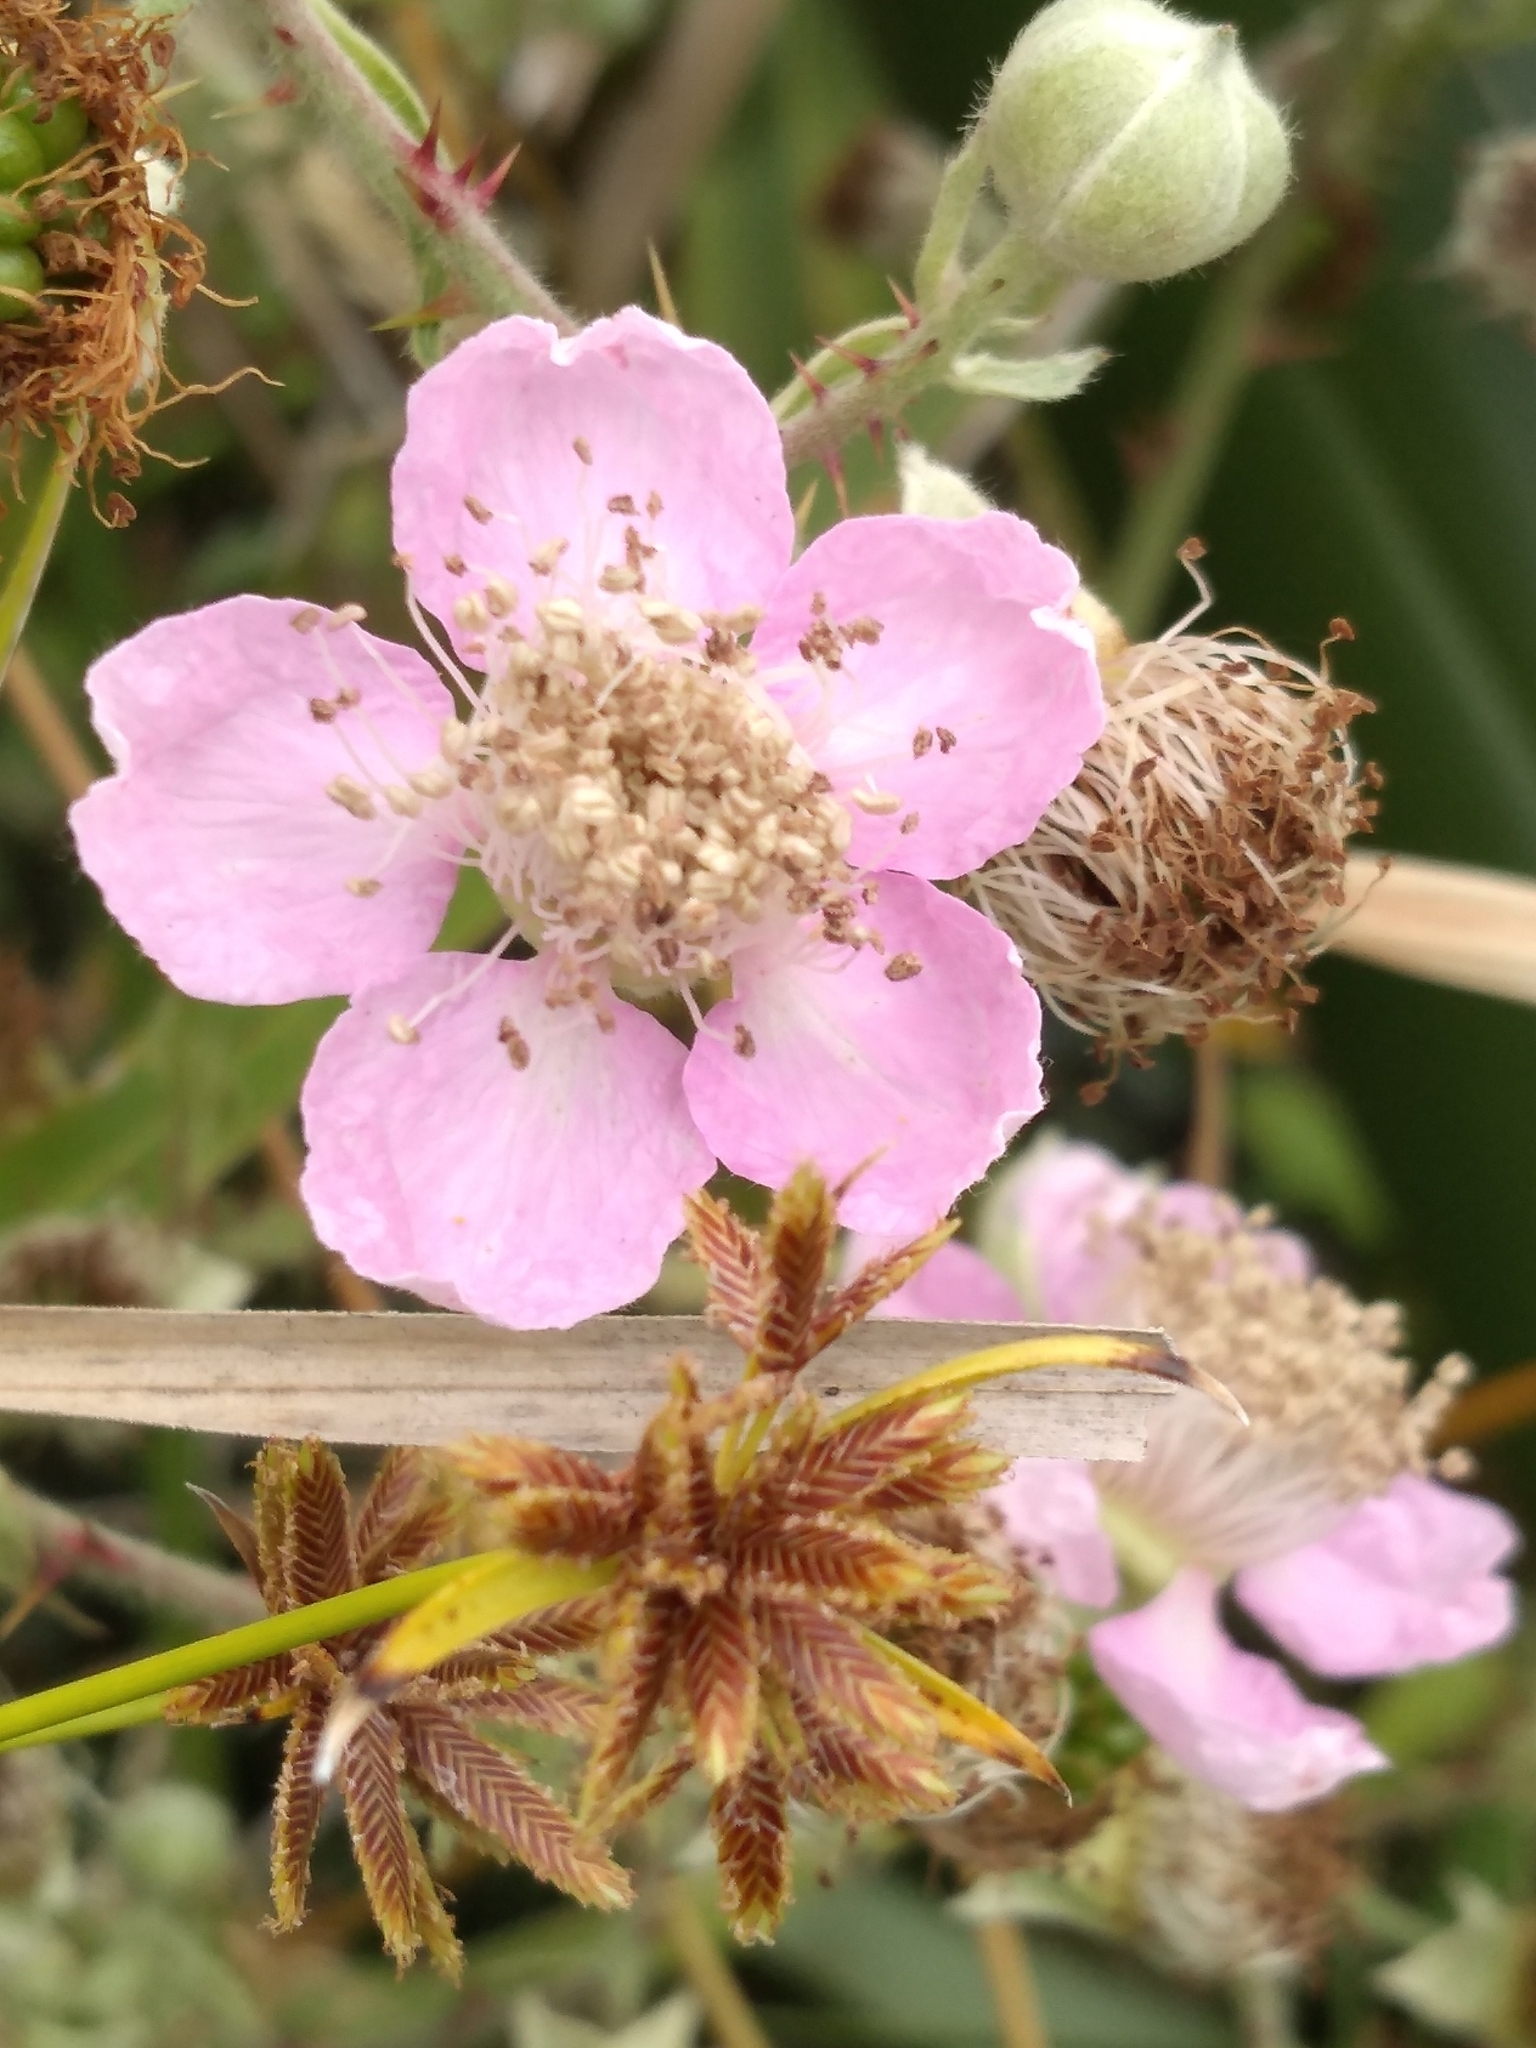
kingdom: Plantae
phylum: Tracheophyta
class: Magnoliopsida
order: Rosales
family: Rosaceae
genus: Rubus
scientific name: Rubus armeniacus
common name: Himalayan blackberry
